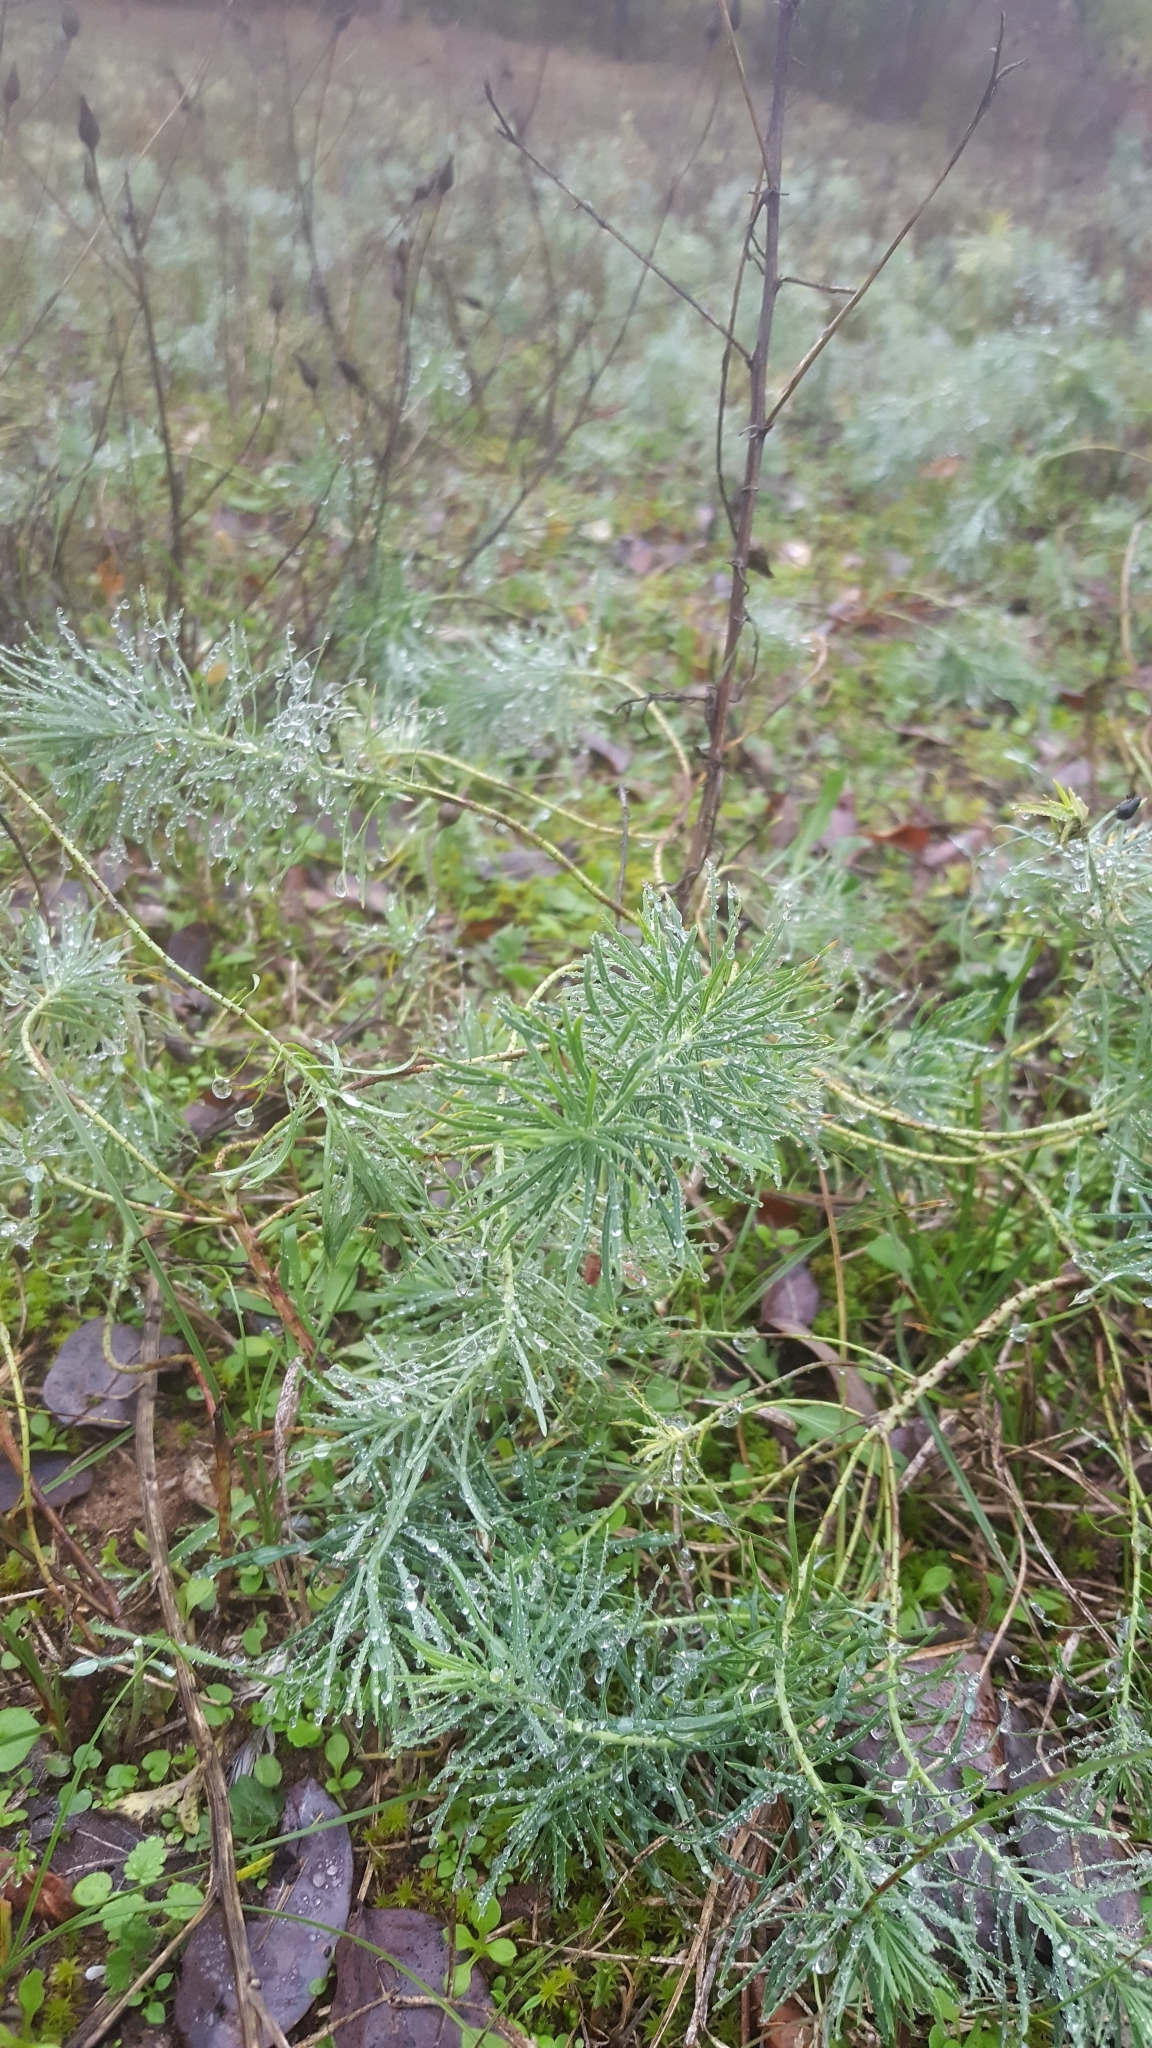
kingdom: Plantae
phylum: Tracheophyta
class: Magnoliopsida
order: Malpighiales
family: Euphorbiaceae
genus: Euphorbia
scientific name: Euphorbia cyparissias
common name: Cypress spurge
